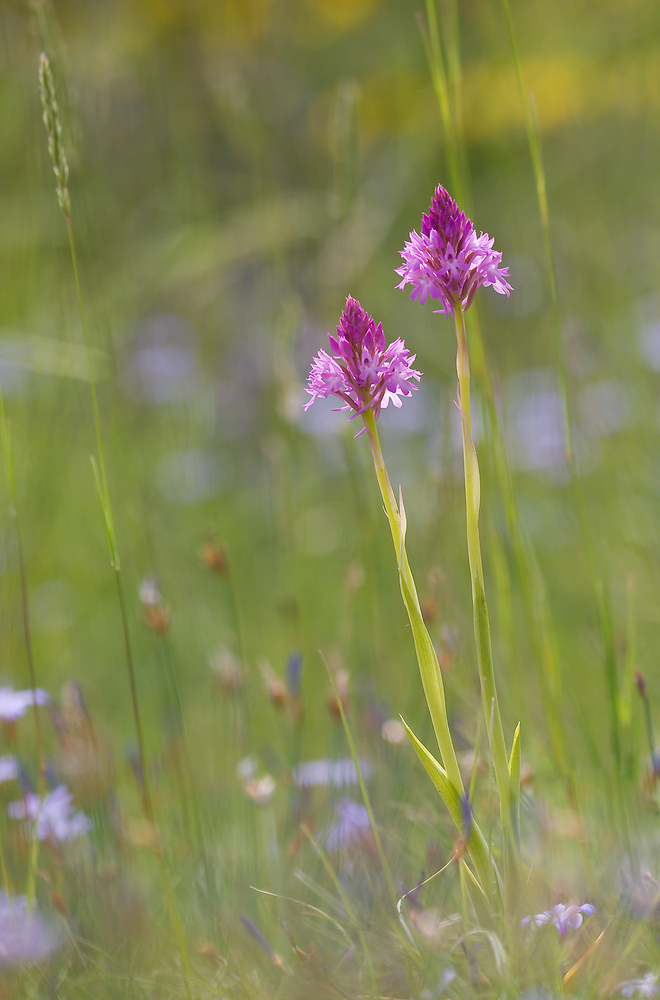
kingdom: Plantae
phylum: Tracheophyta
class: Liliopsida
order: Asparagales
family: Orchidaceae
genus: Anacamptis
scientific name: Anacamptis pyramidalis
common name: Pyramidal orchid
